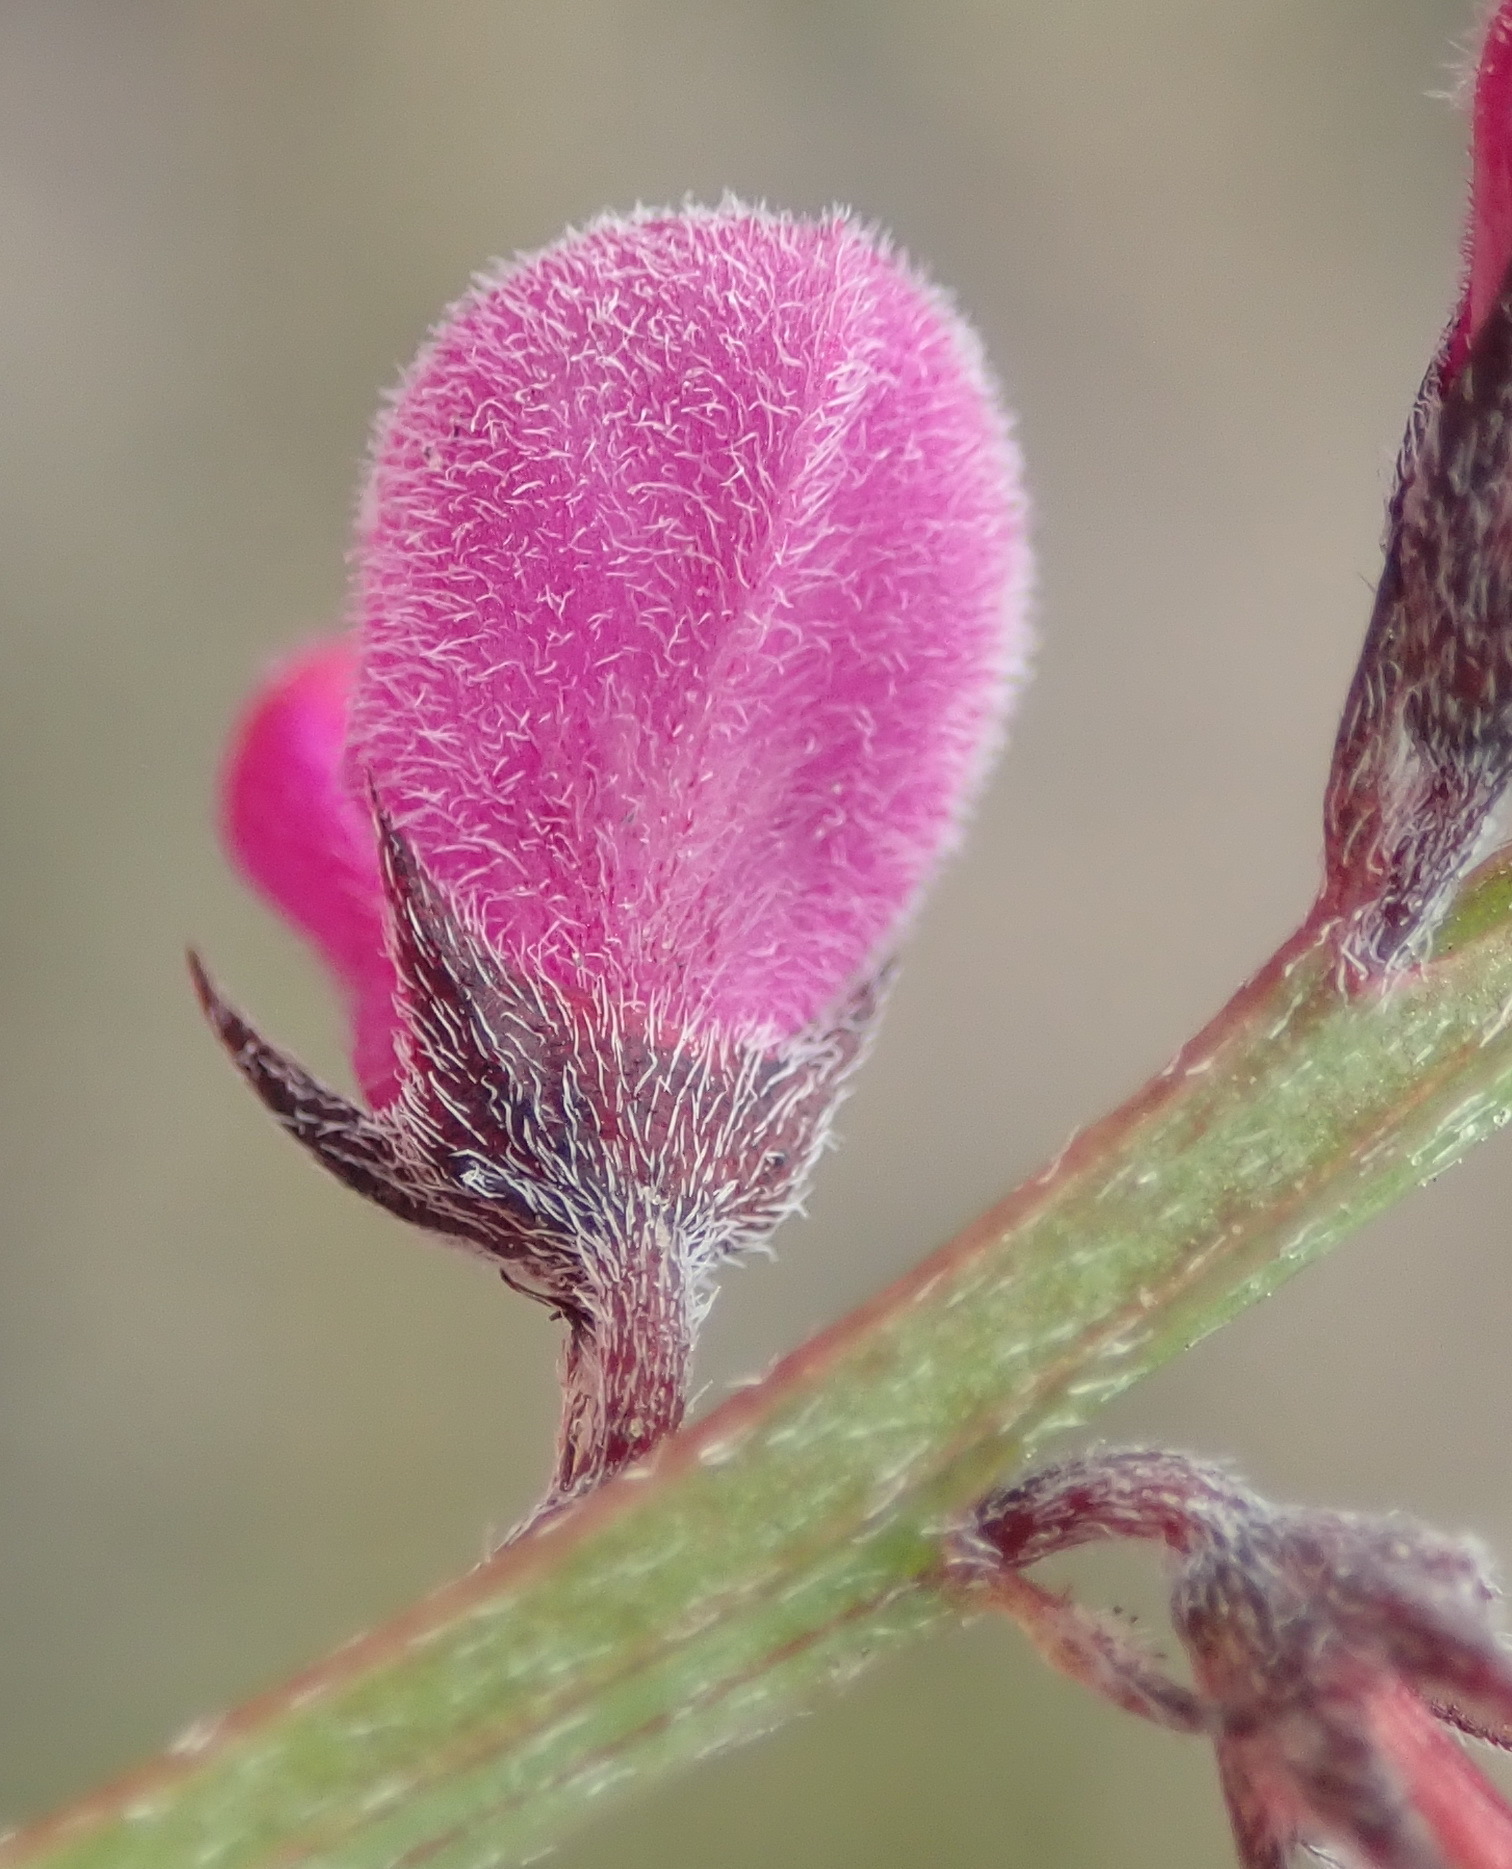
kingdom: Plantae
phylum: Tracheophyta
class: Magnoliopsida
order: Fabales
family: Fabaceae
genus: Indigofera
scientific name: Indigofera declinata
